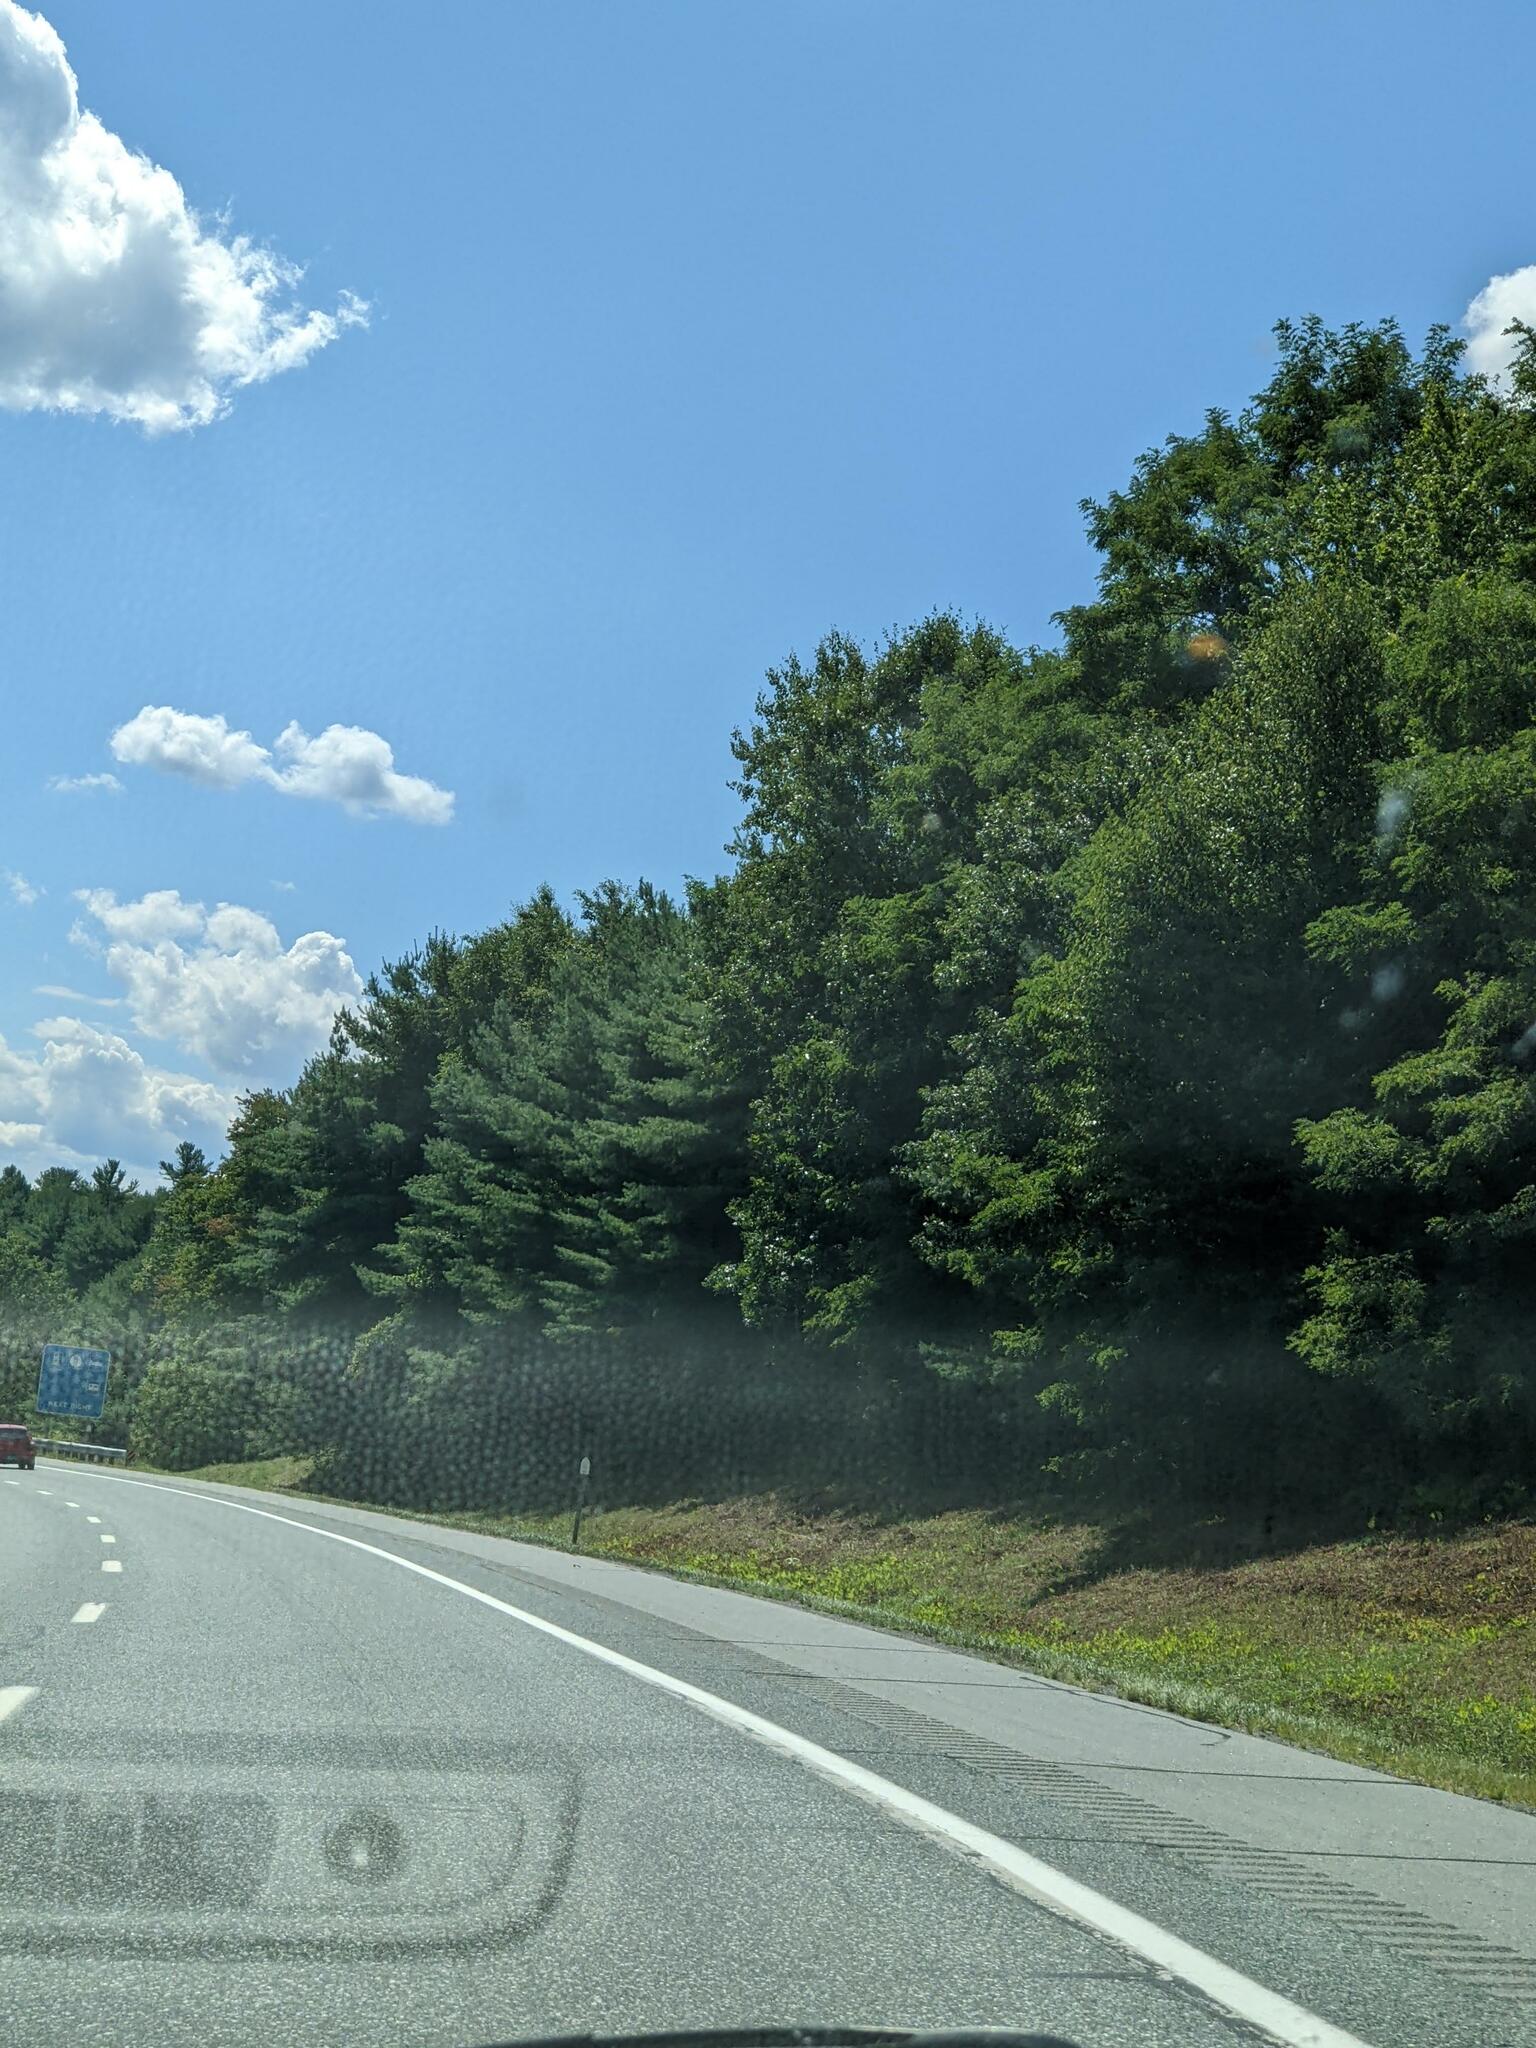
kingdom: Plantae
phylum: Tracheophyta
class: Pinopsida
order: Pinales
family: Pinaceae
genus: Pinus
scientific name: Pinus strobus
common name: Weymouth pine
